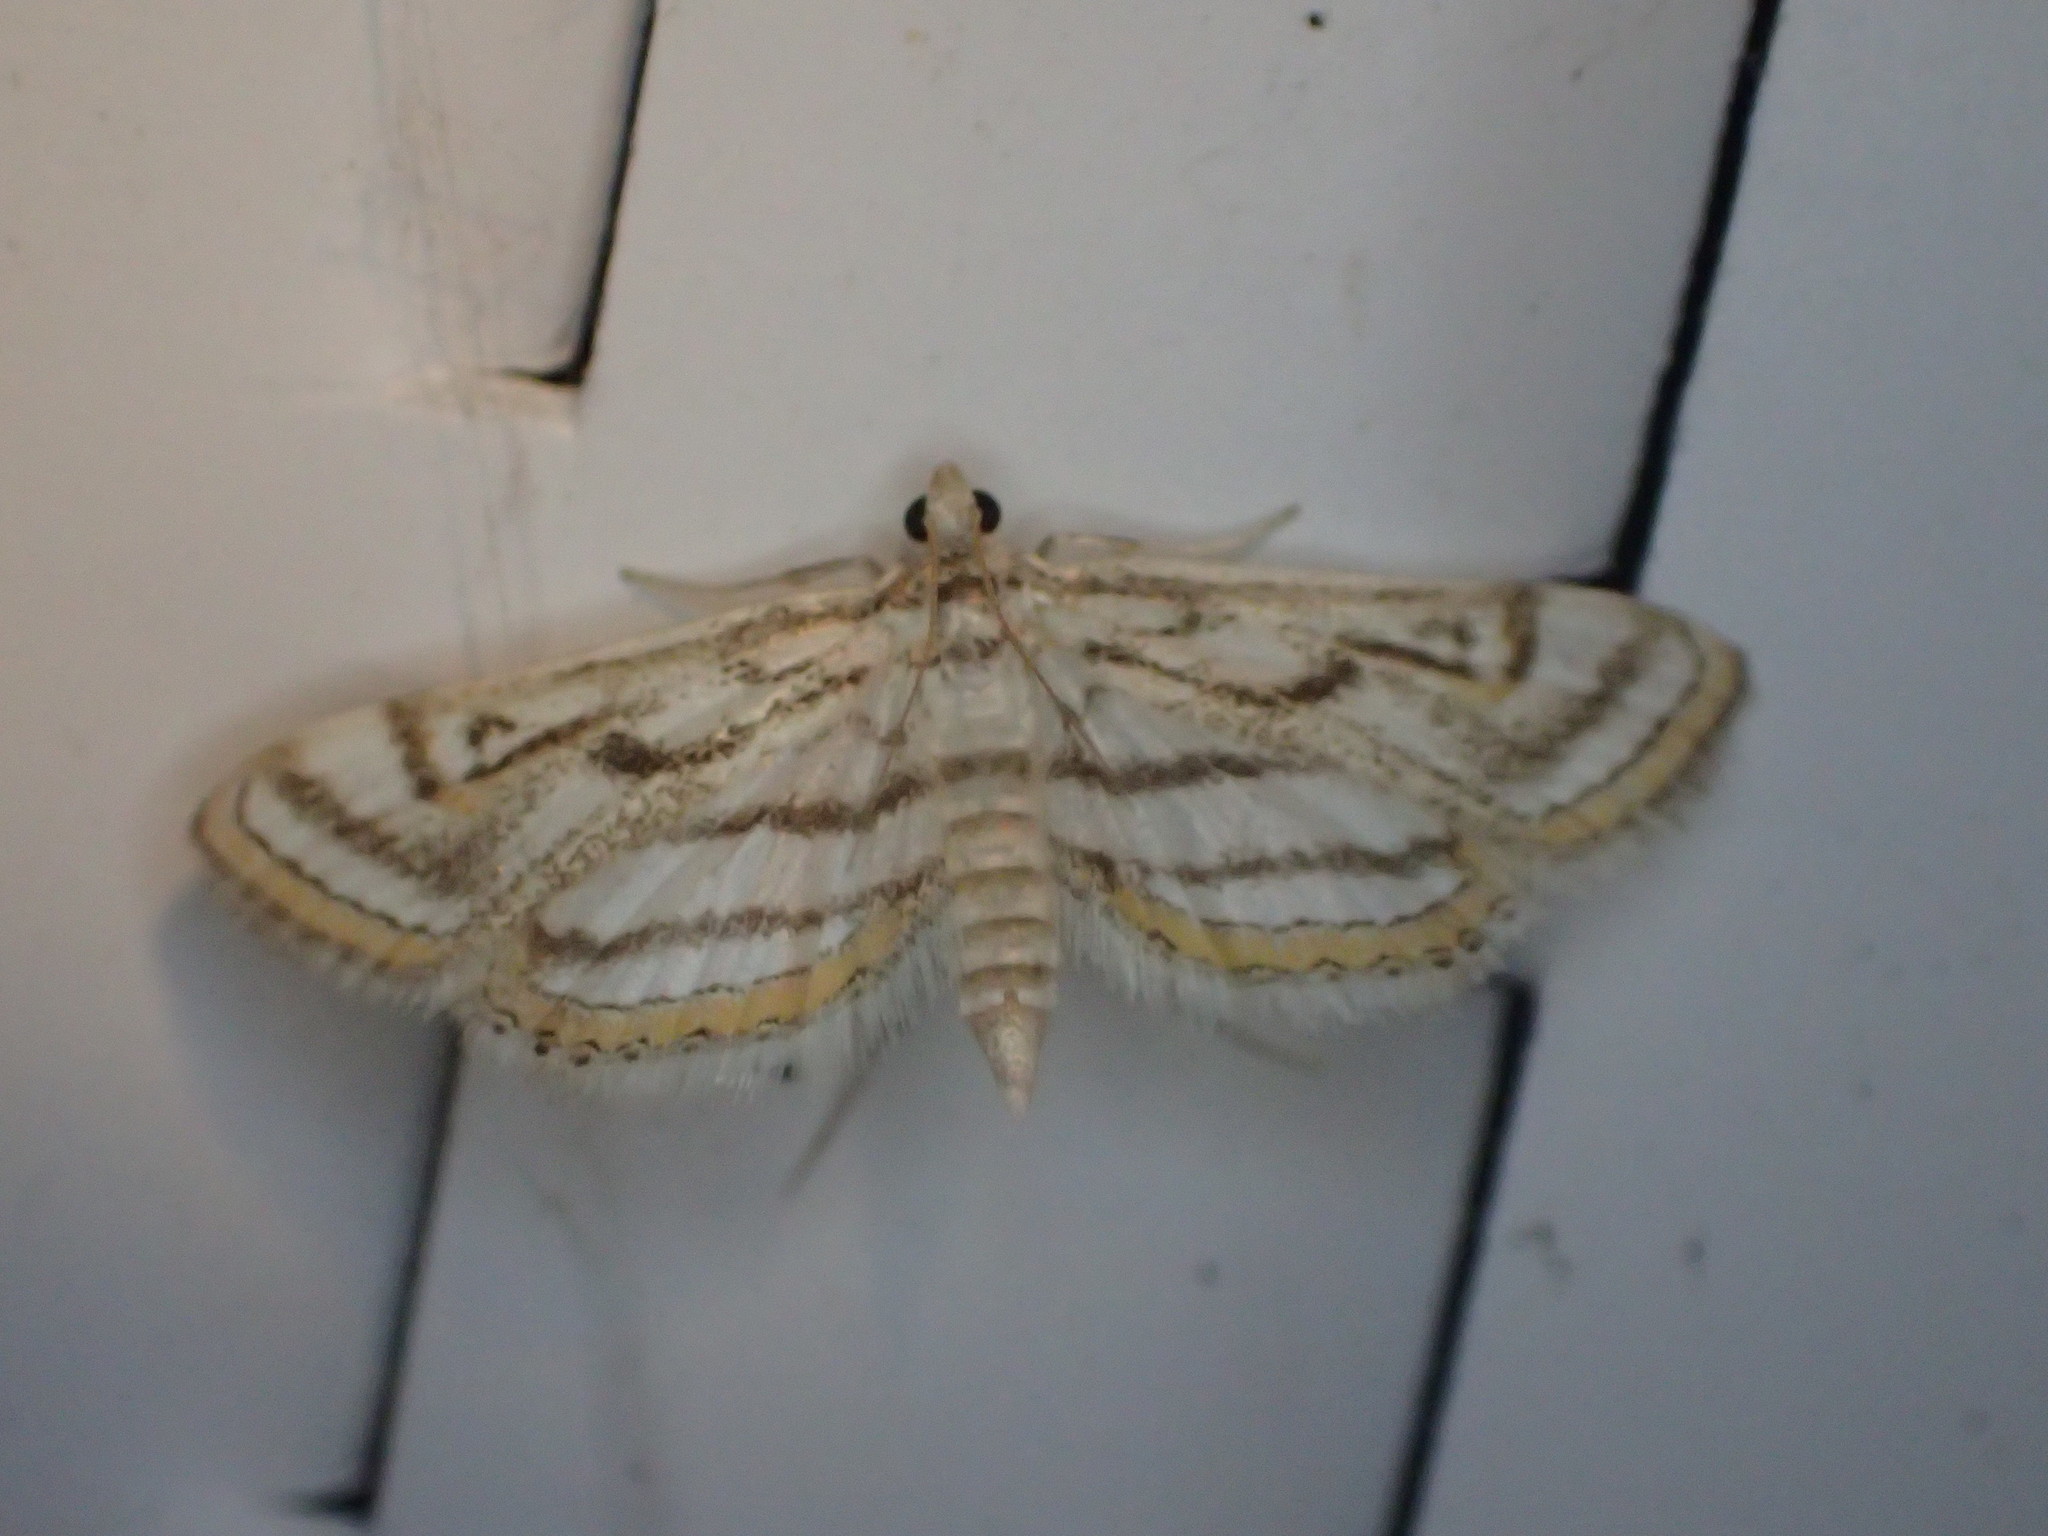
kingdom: Animalia
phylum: Arthropoda
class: Insecta
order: Lepidoptera
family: Crambidae
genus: Parapoynx
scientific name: Parapoynx badiusalis
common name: Chestnut-marked pondweed moth
